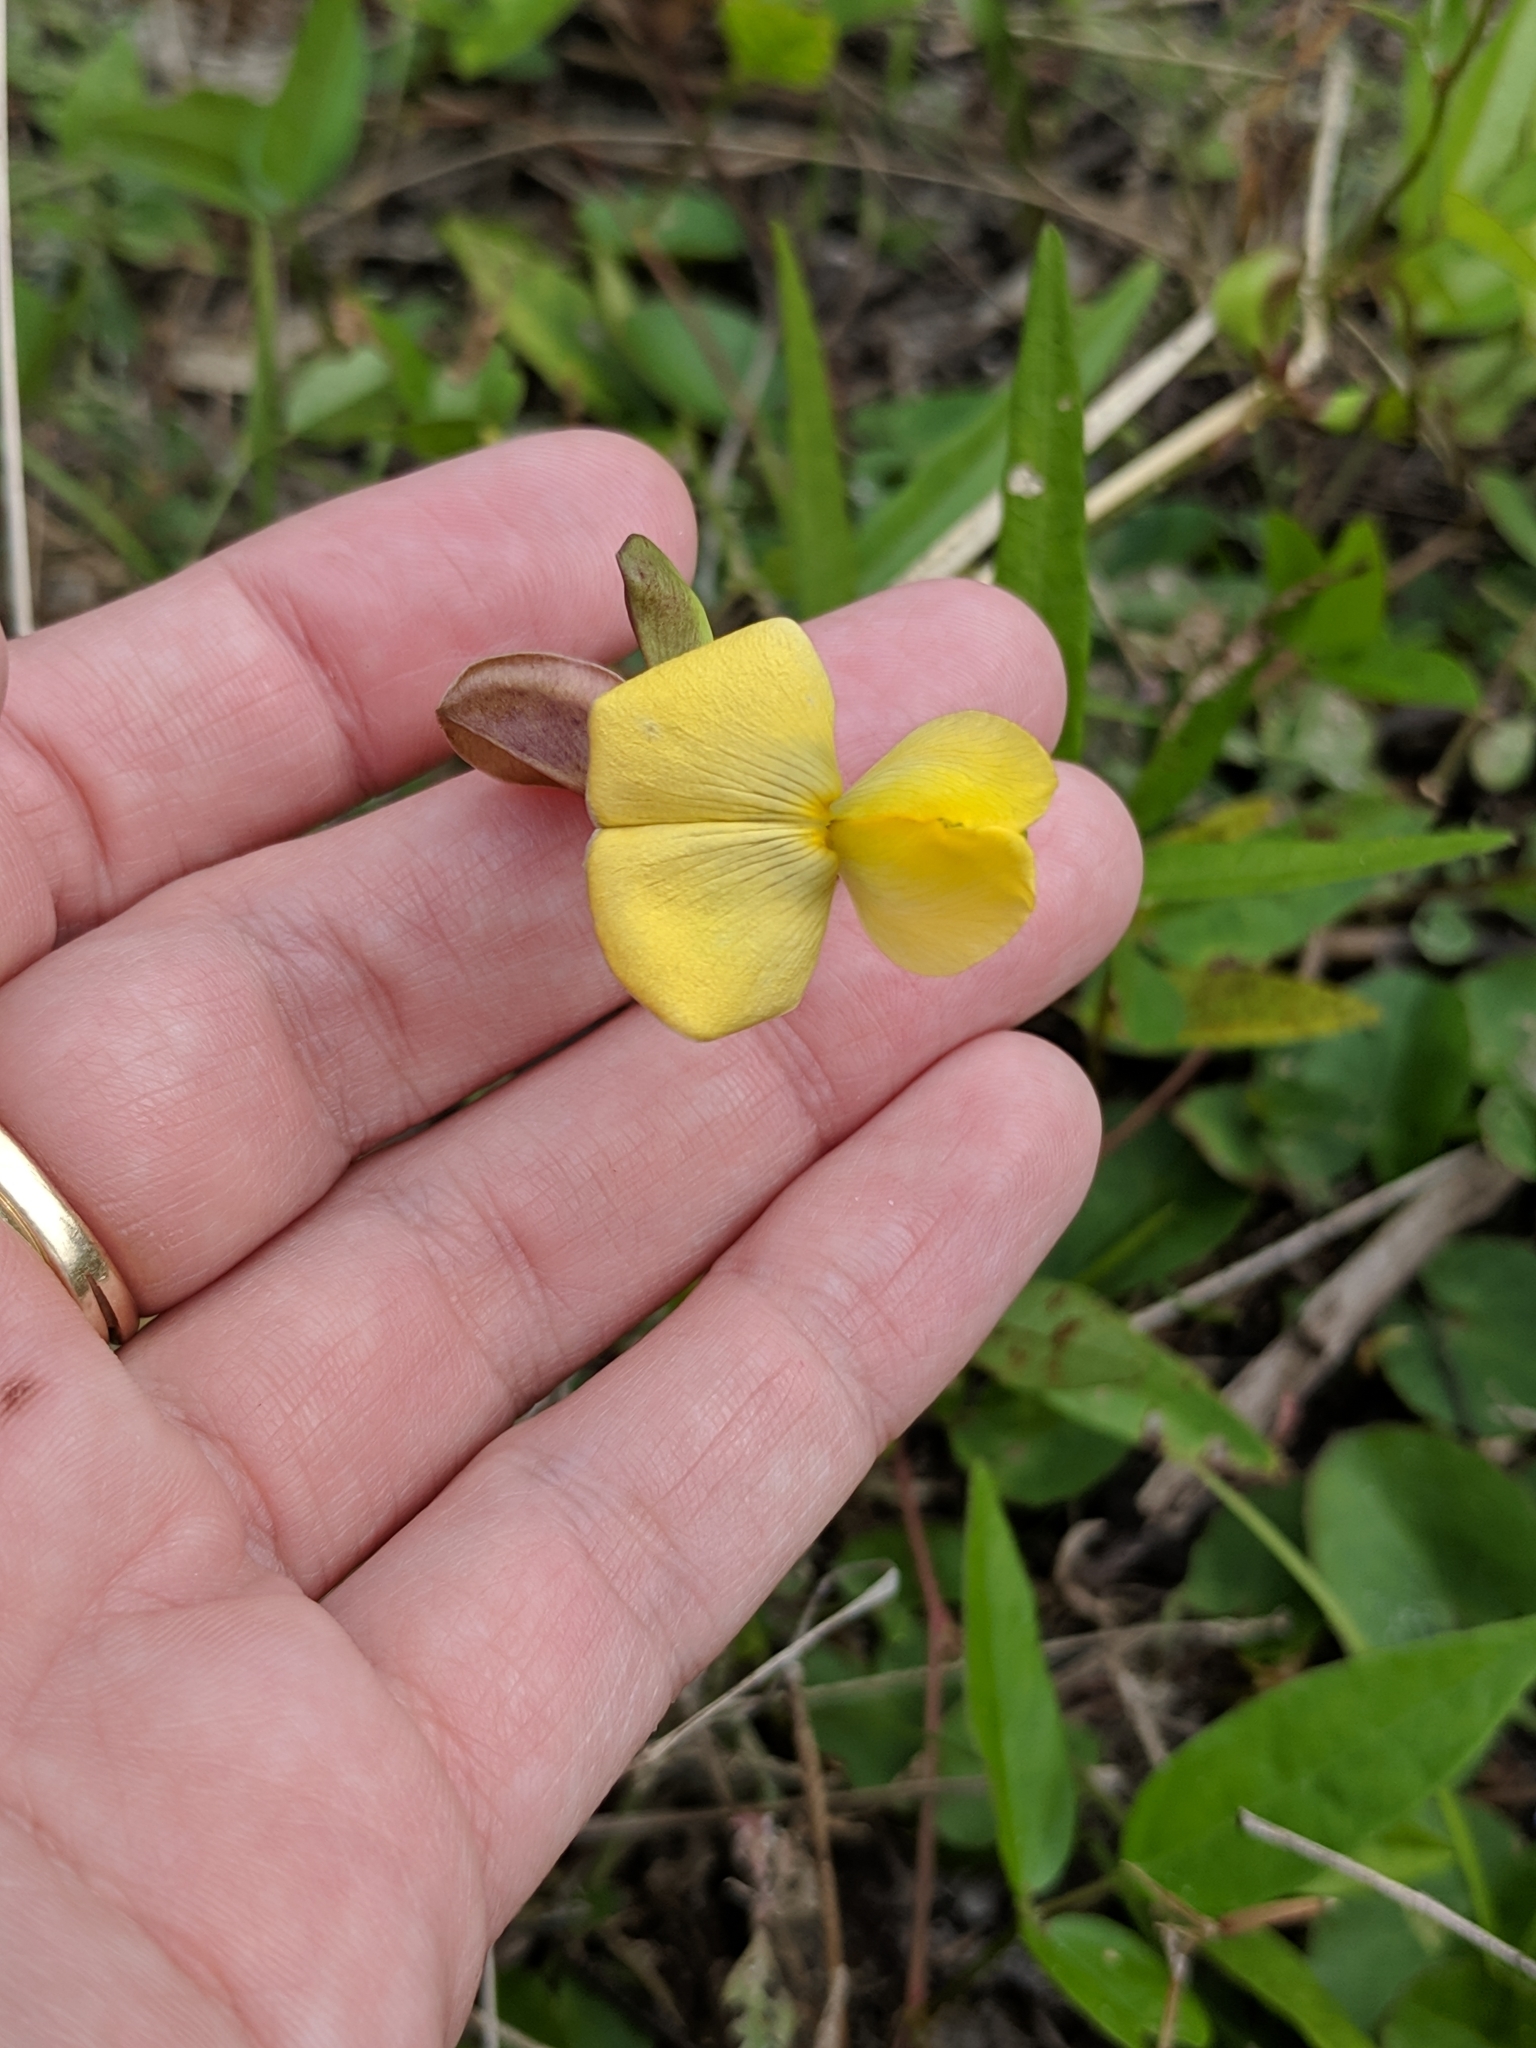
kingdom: Plantae
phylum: Tracheophyta
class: Magnoliopsida
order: Fabales
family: Fabaceae
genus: Vigna
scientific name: Vigna luteola
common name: Hairypod cowpea
